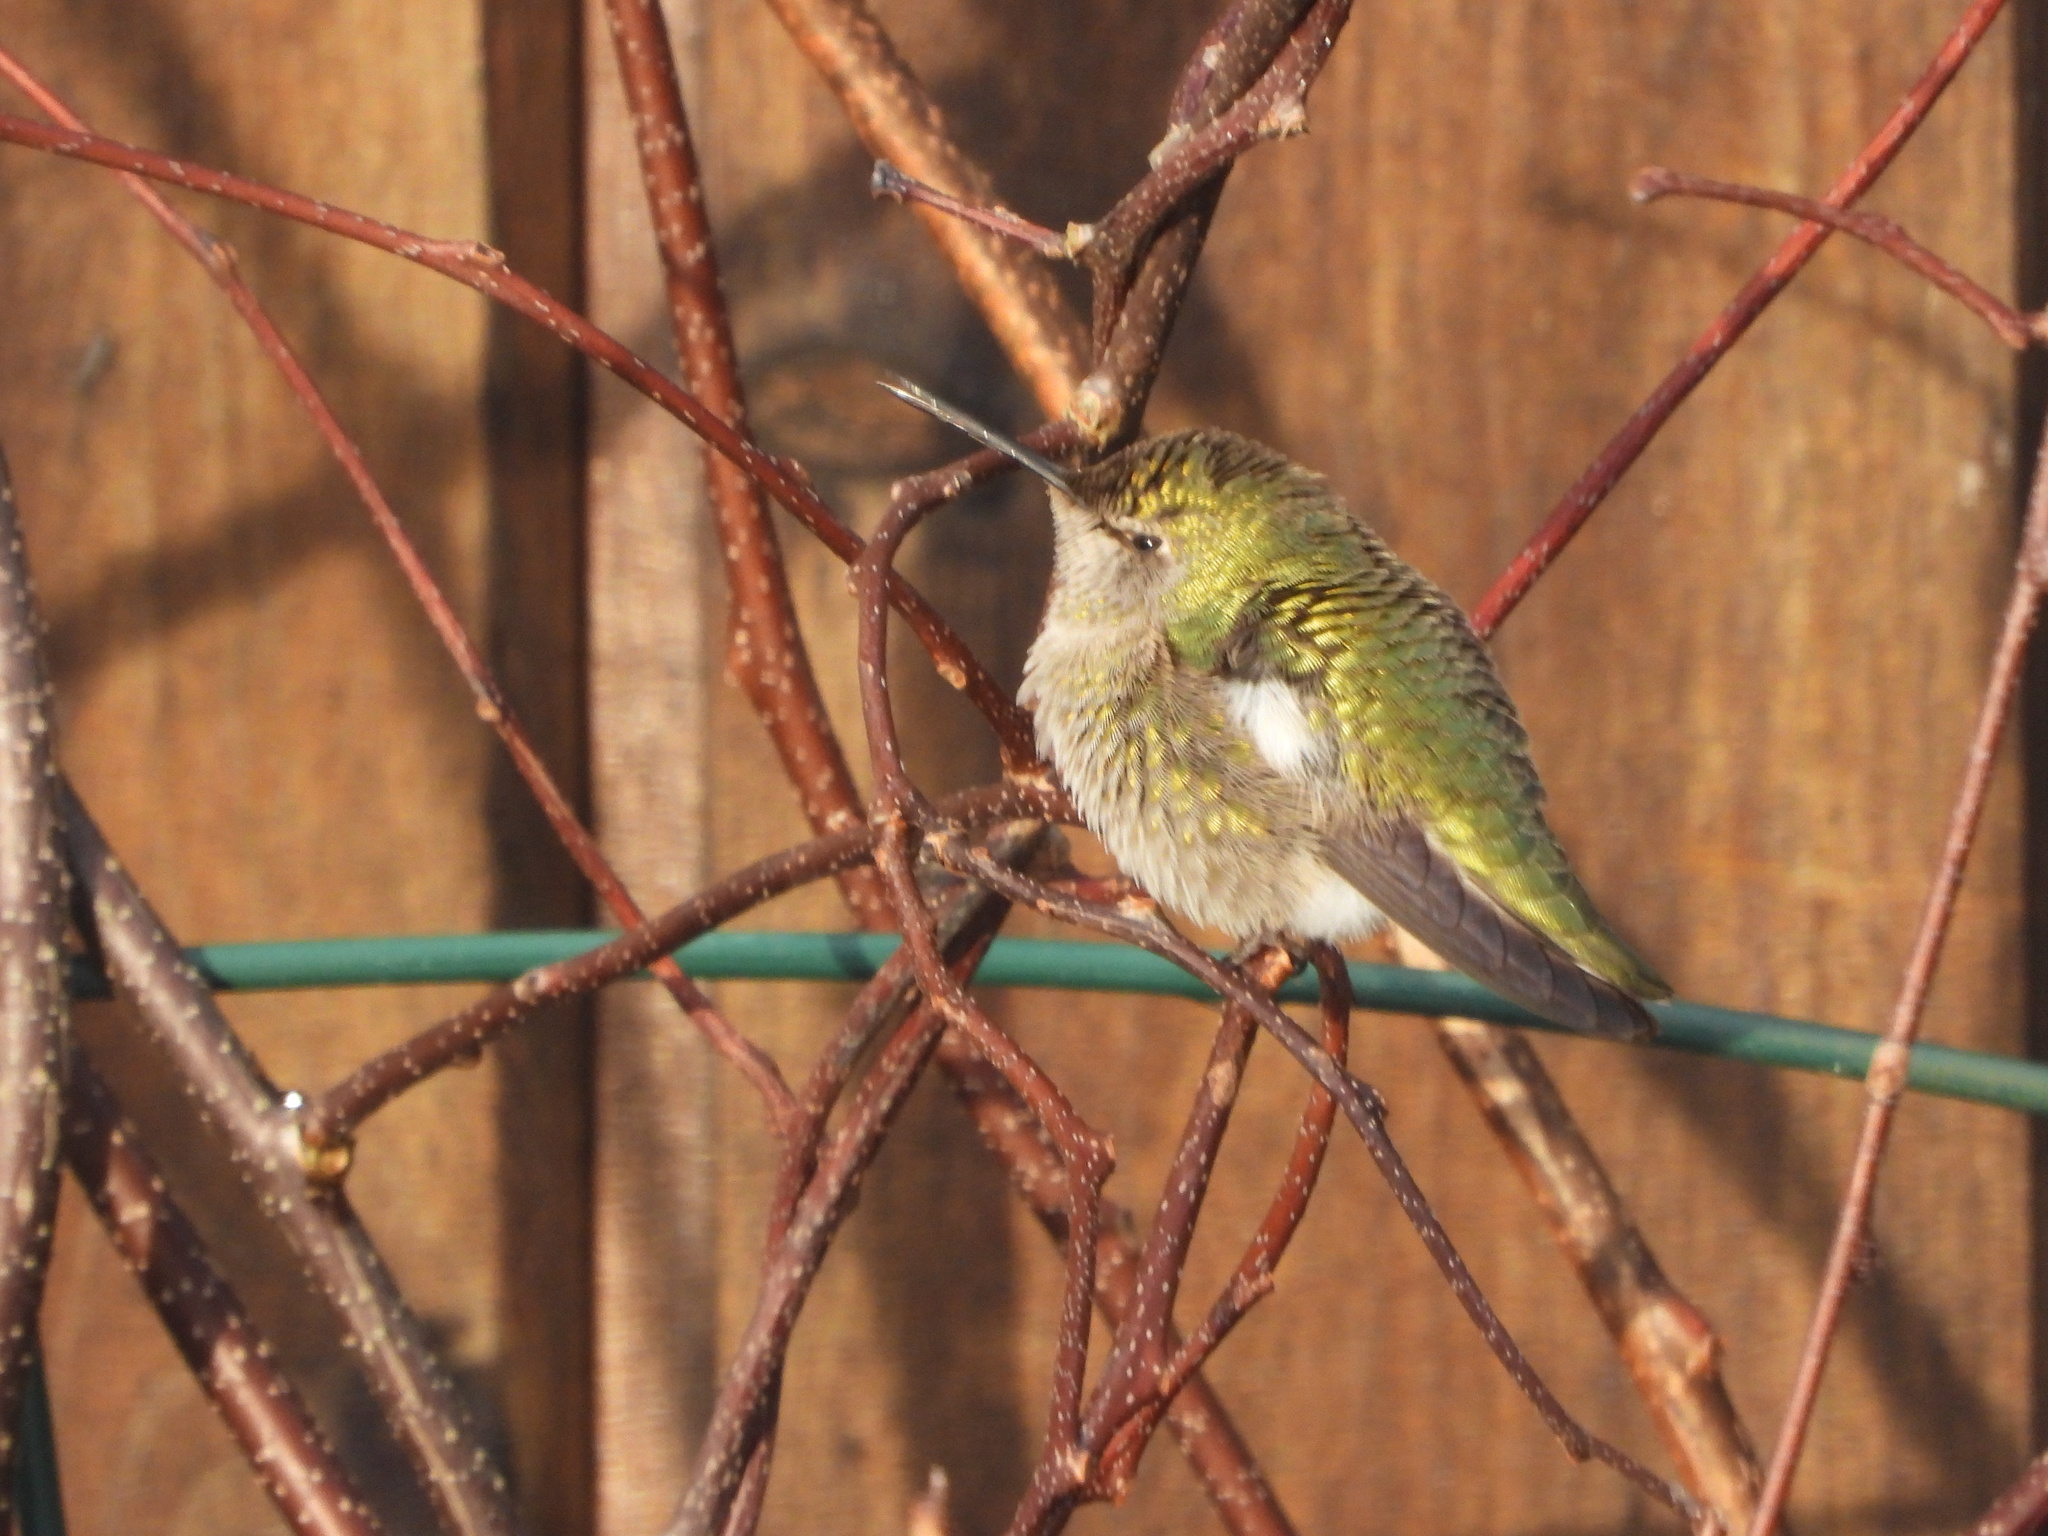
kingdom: Animalia
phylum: Chordata
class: Aves
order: Apodiformes
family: Trochilidae
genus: Calypte
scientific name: Calypte anna
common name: Anna's hummingbird
